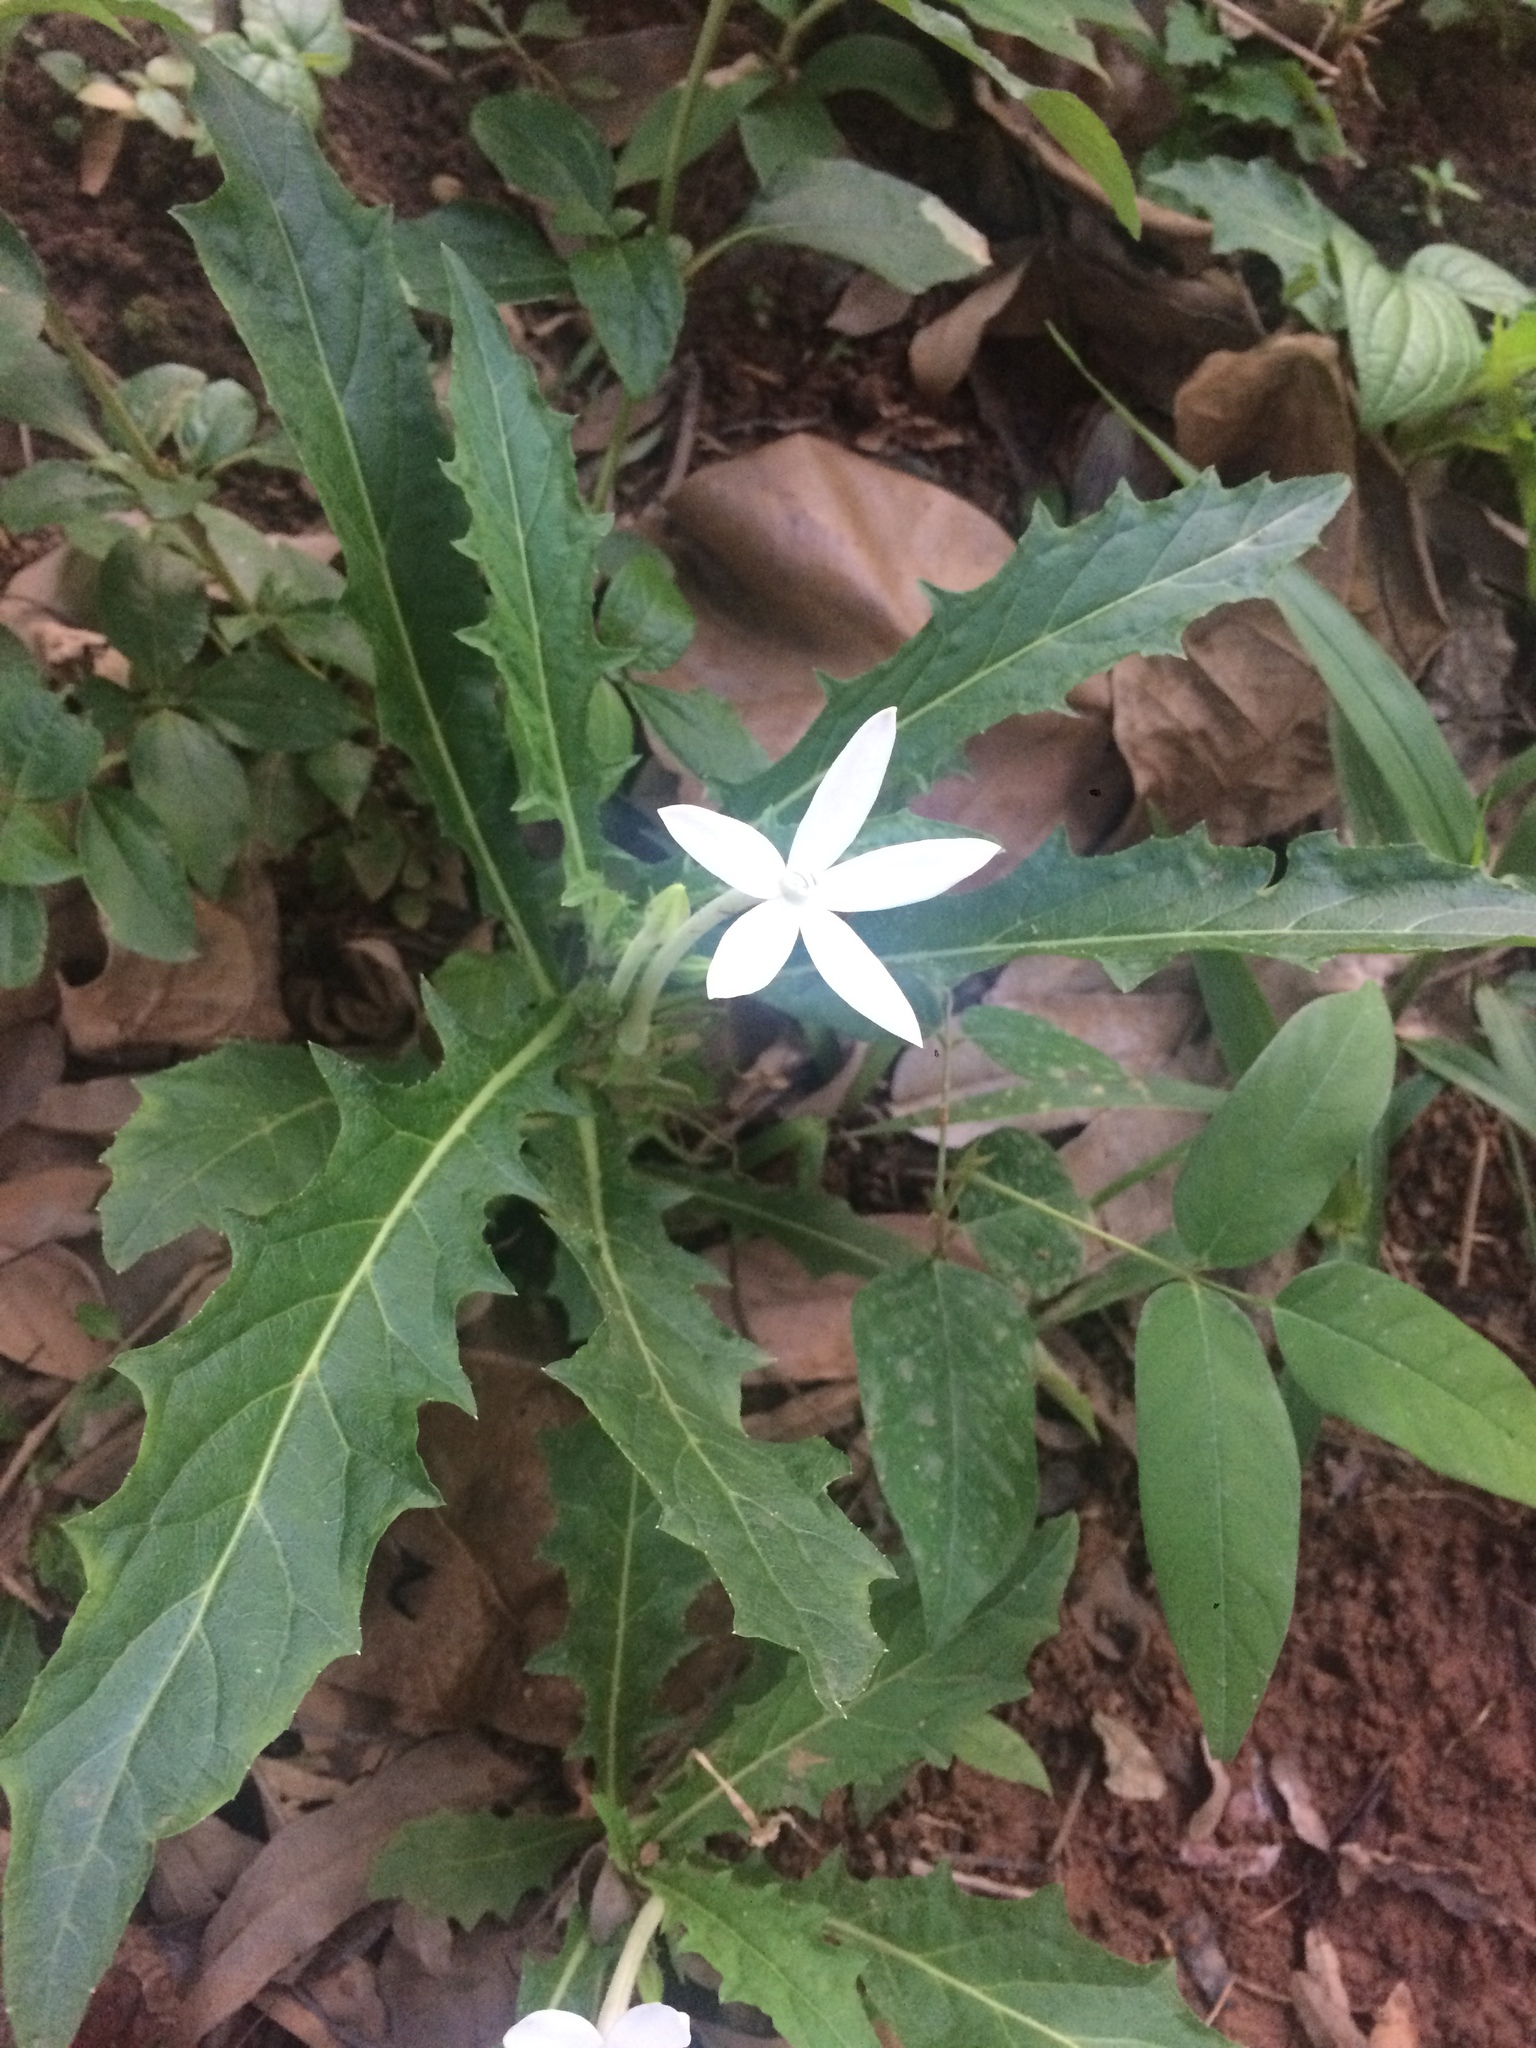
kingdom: Plantae
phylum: Tracheophyta
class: Magnoliopsida
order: Asterales
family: Campanulaceae
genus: Hippobroma
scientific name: Hippobroma longiflora
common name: Madamfate
